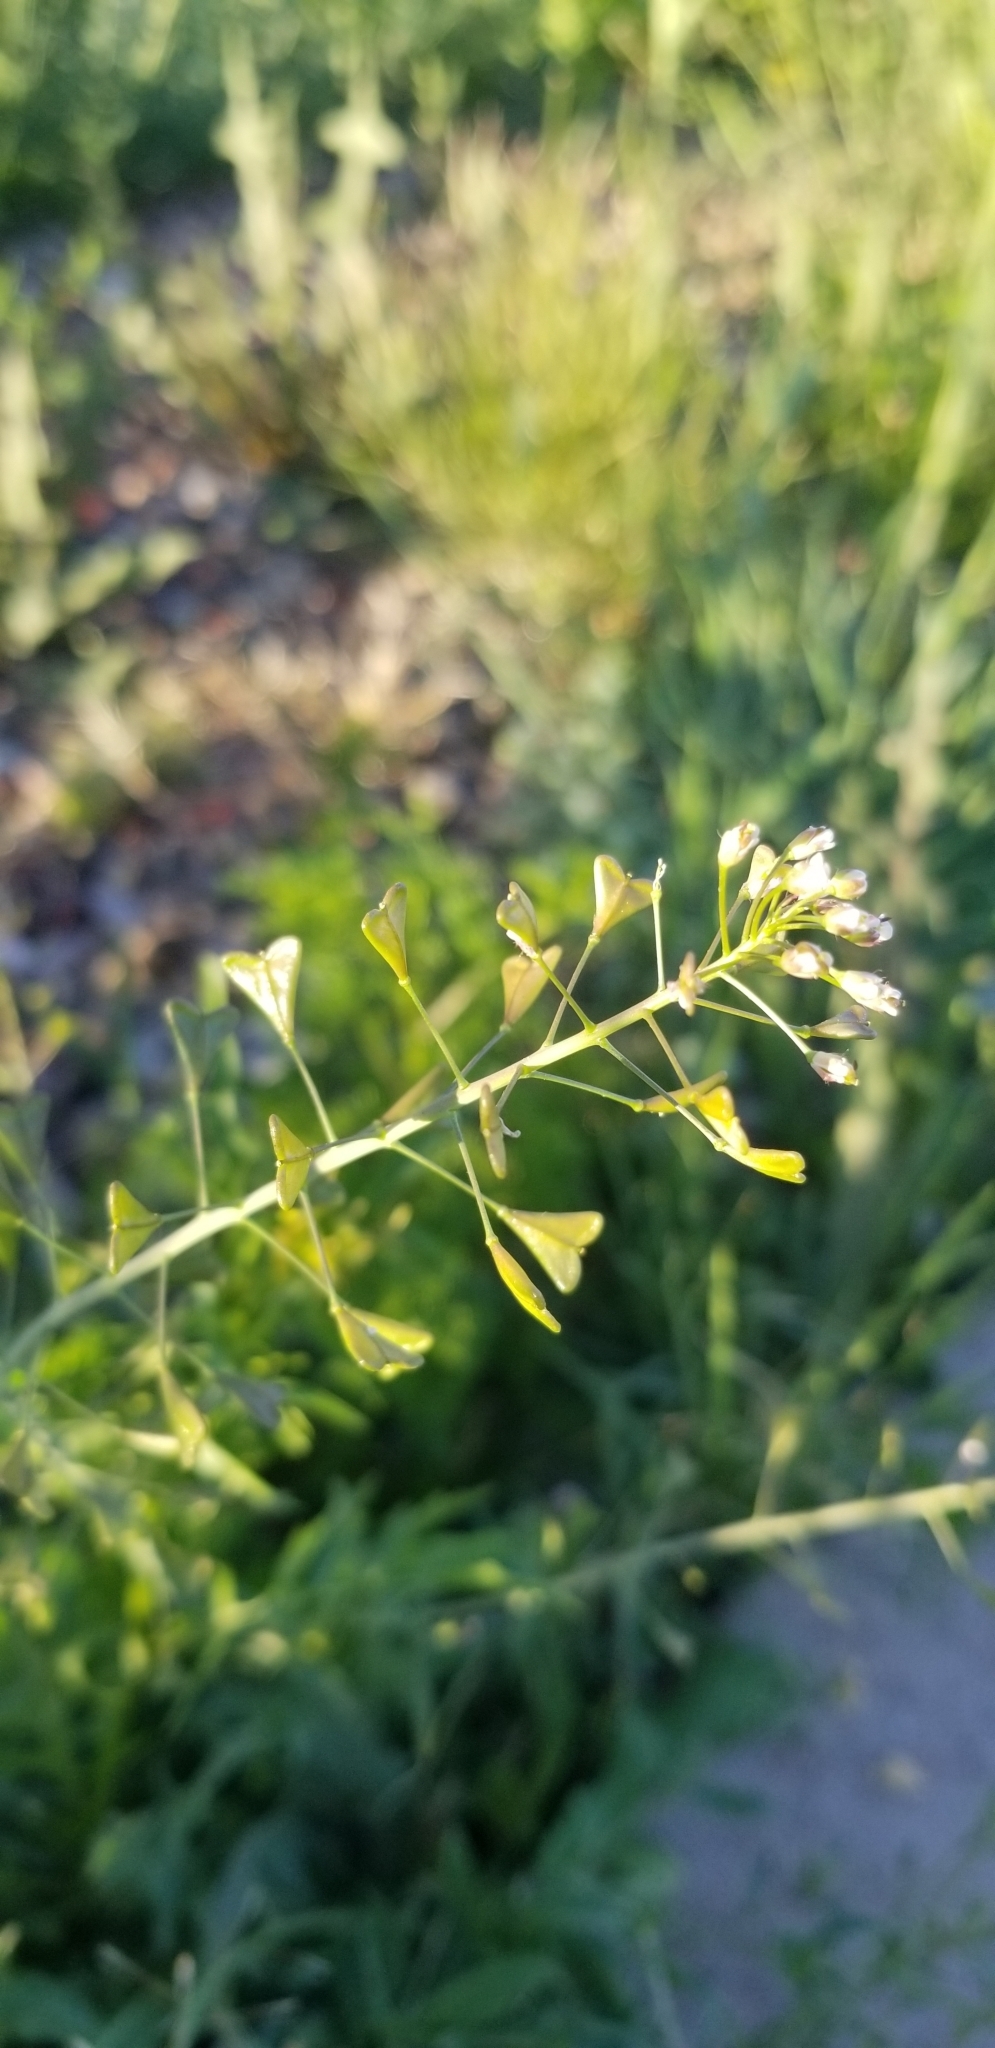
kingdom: Plantae
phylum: Tracheophyta
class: Magnoliopsida
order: Brassicales
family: Brassicaceae
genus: Capsella
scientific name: Capsella bursa-pastoris
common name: Shepherd's purse
